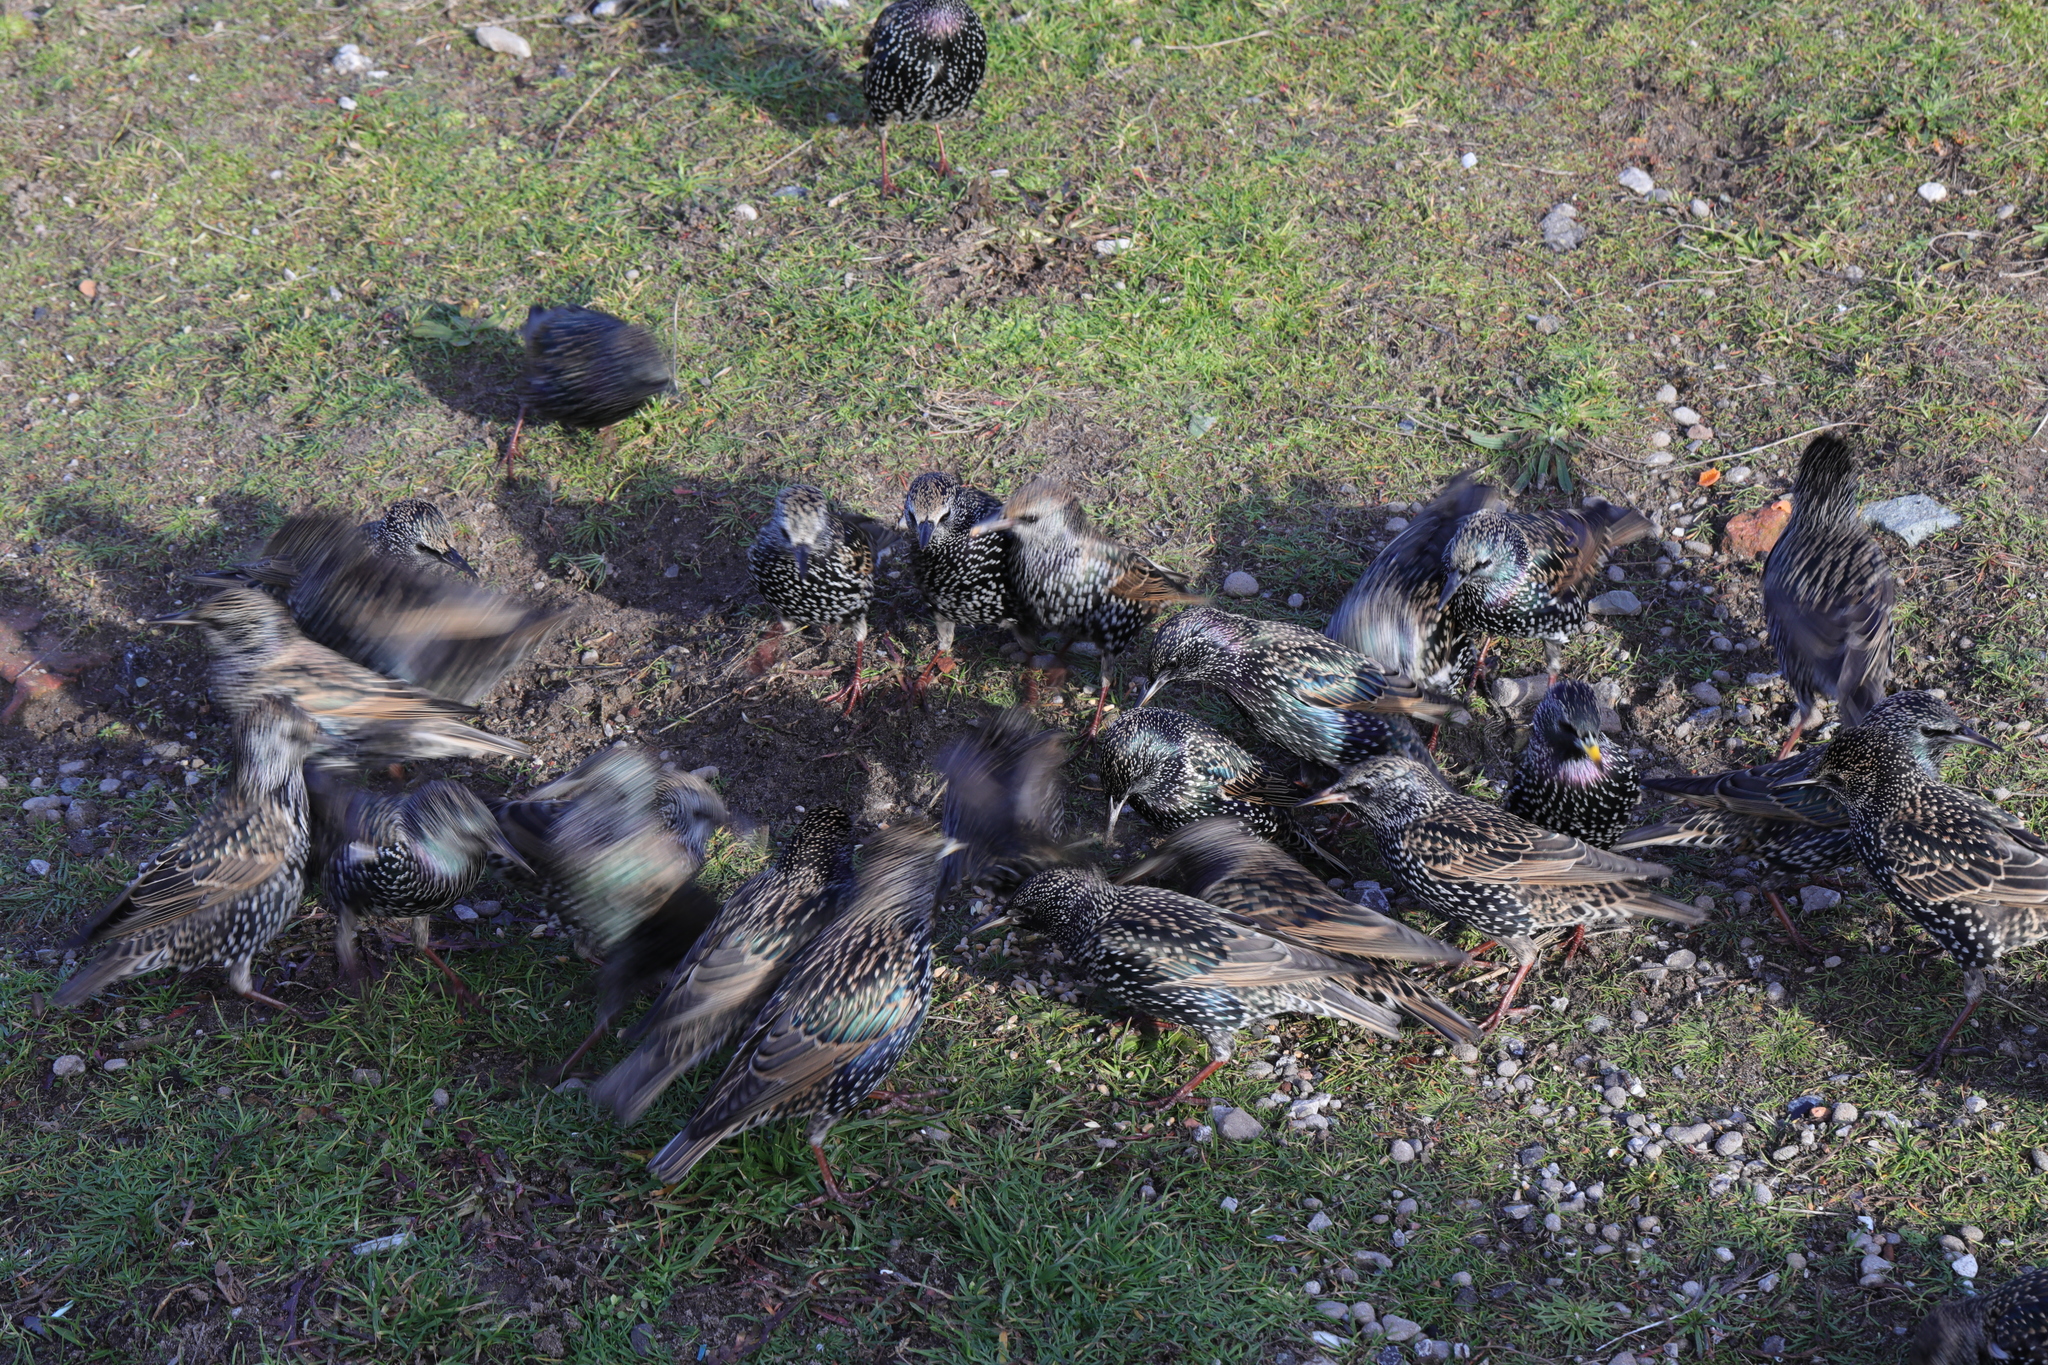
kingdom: Animalia
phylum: Chordata
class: Aves
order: Passeriformes
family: Sturnidae
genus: Sturnus
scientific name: Sturnus vulgaris
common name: Common starling
